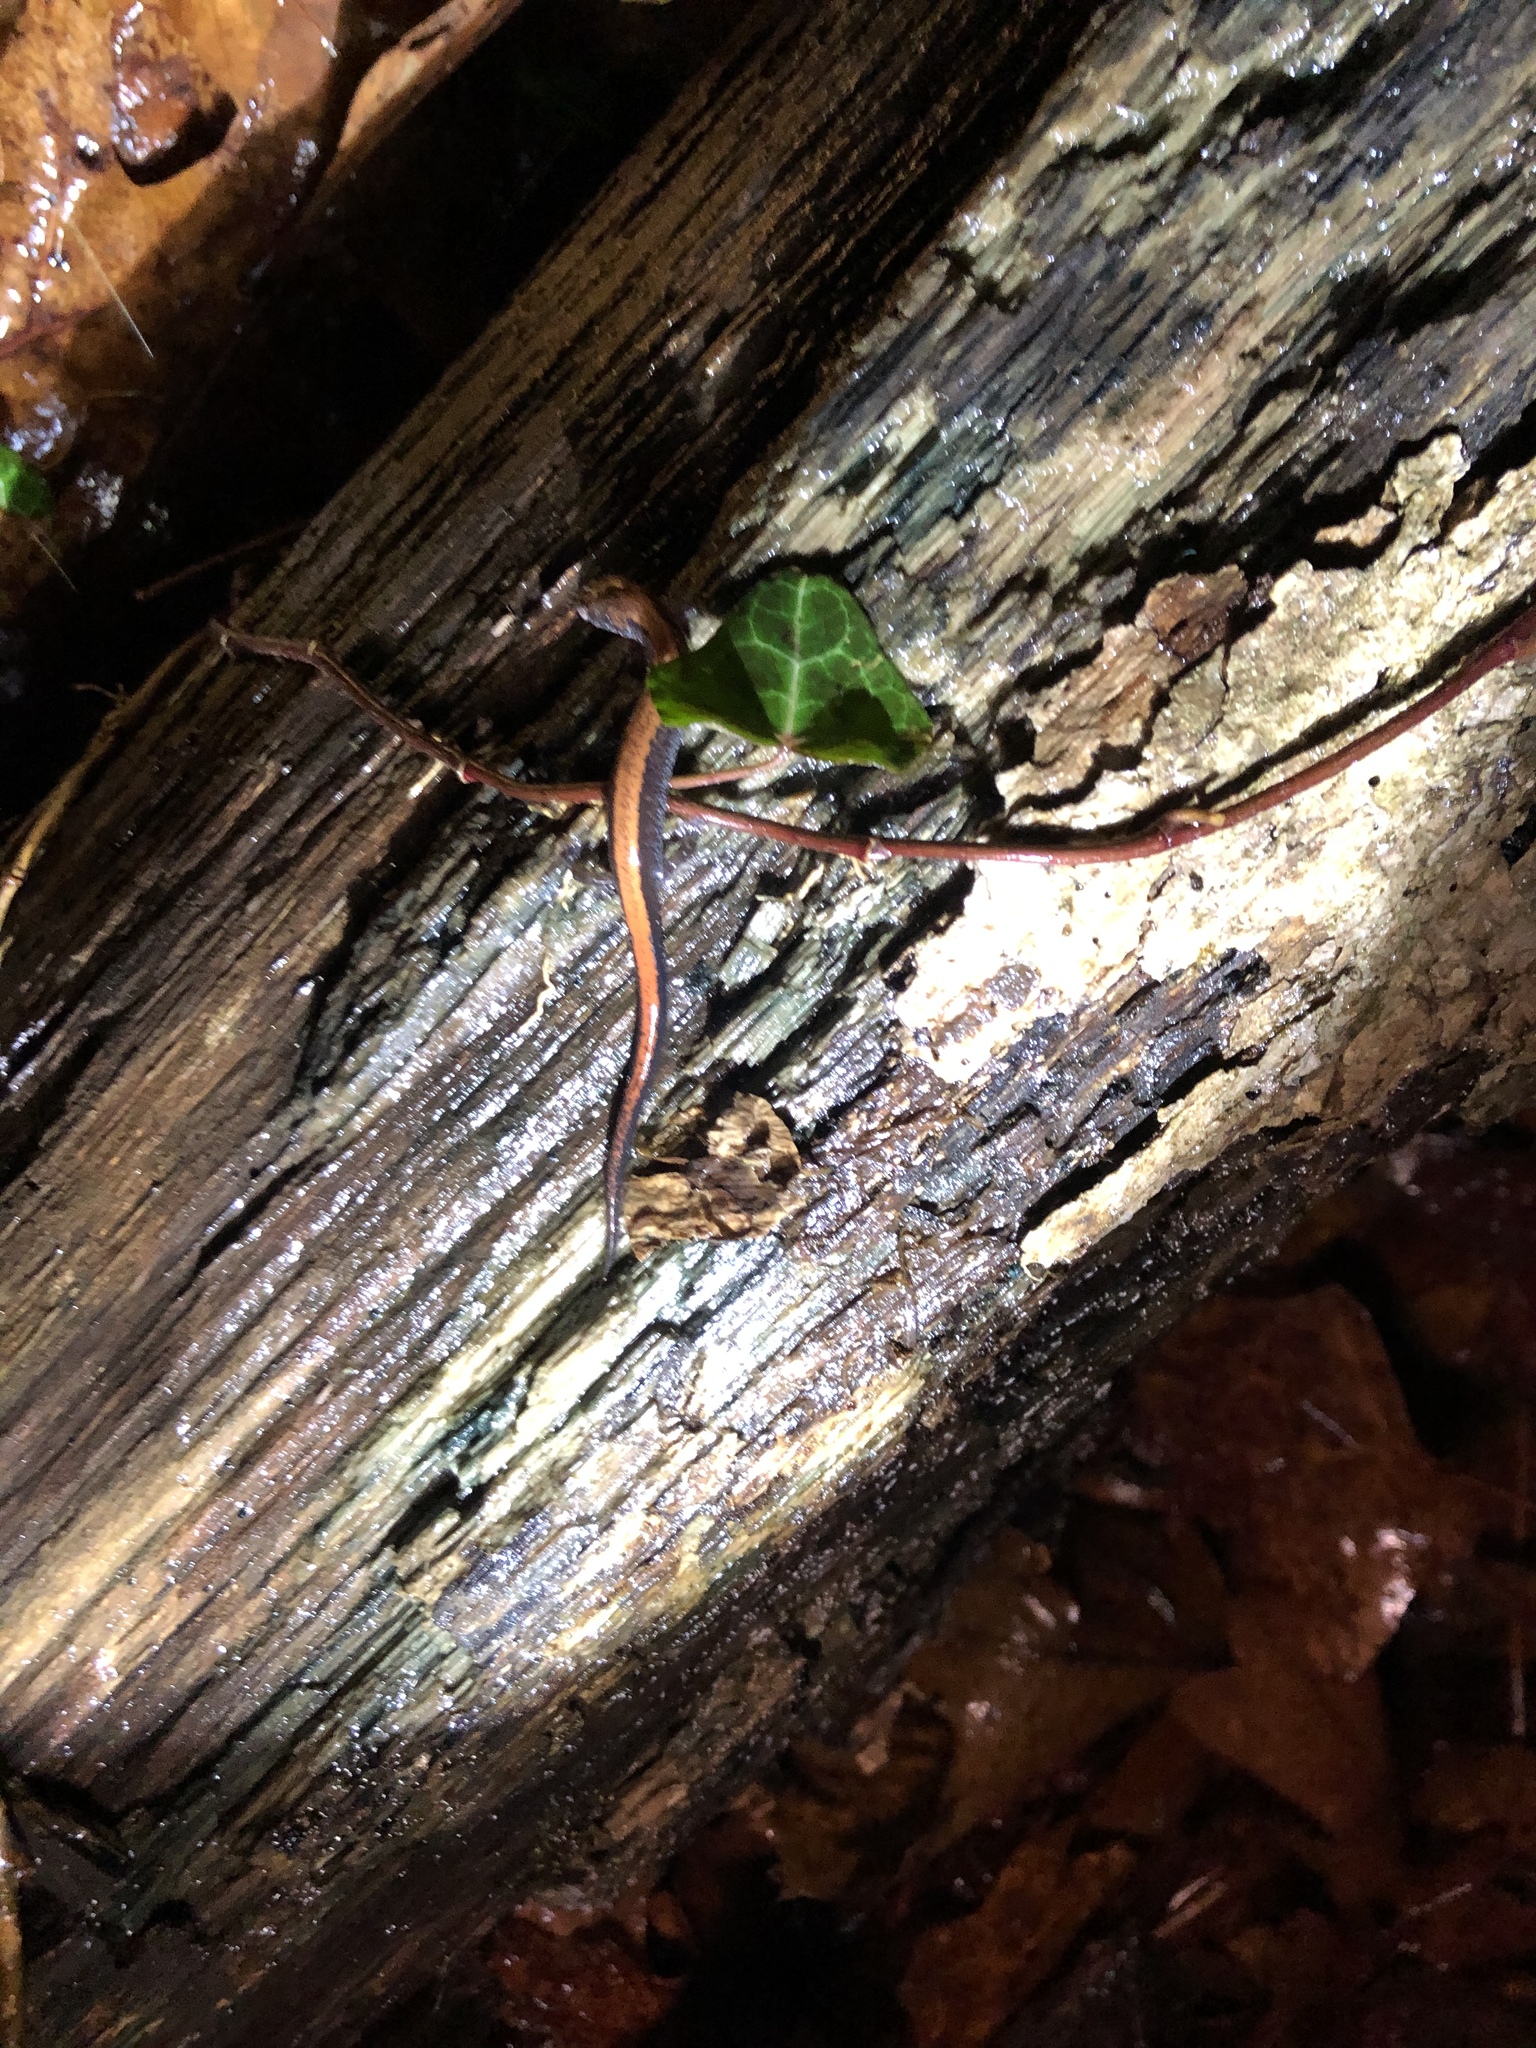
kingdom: Animalia
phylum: Chordata
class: Amphibia
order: Caudata
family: Plethodontidae
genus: Plethodon
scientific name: Plethodon cinereus
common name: Redback salamander
